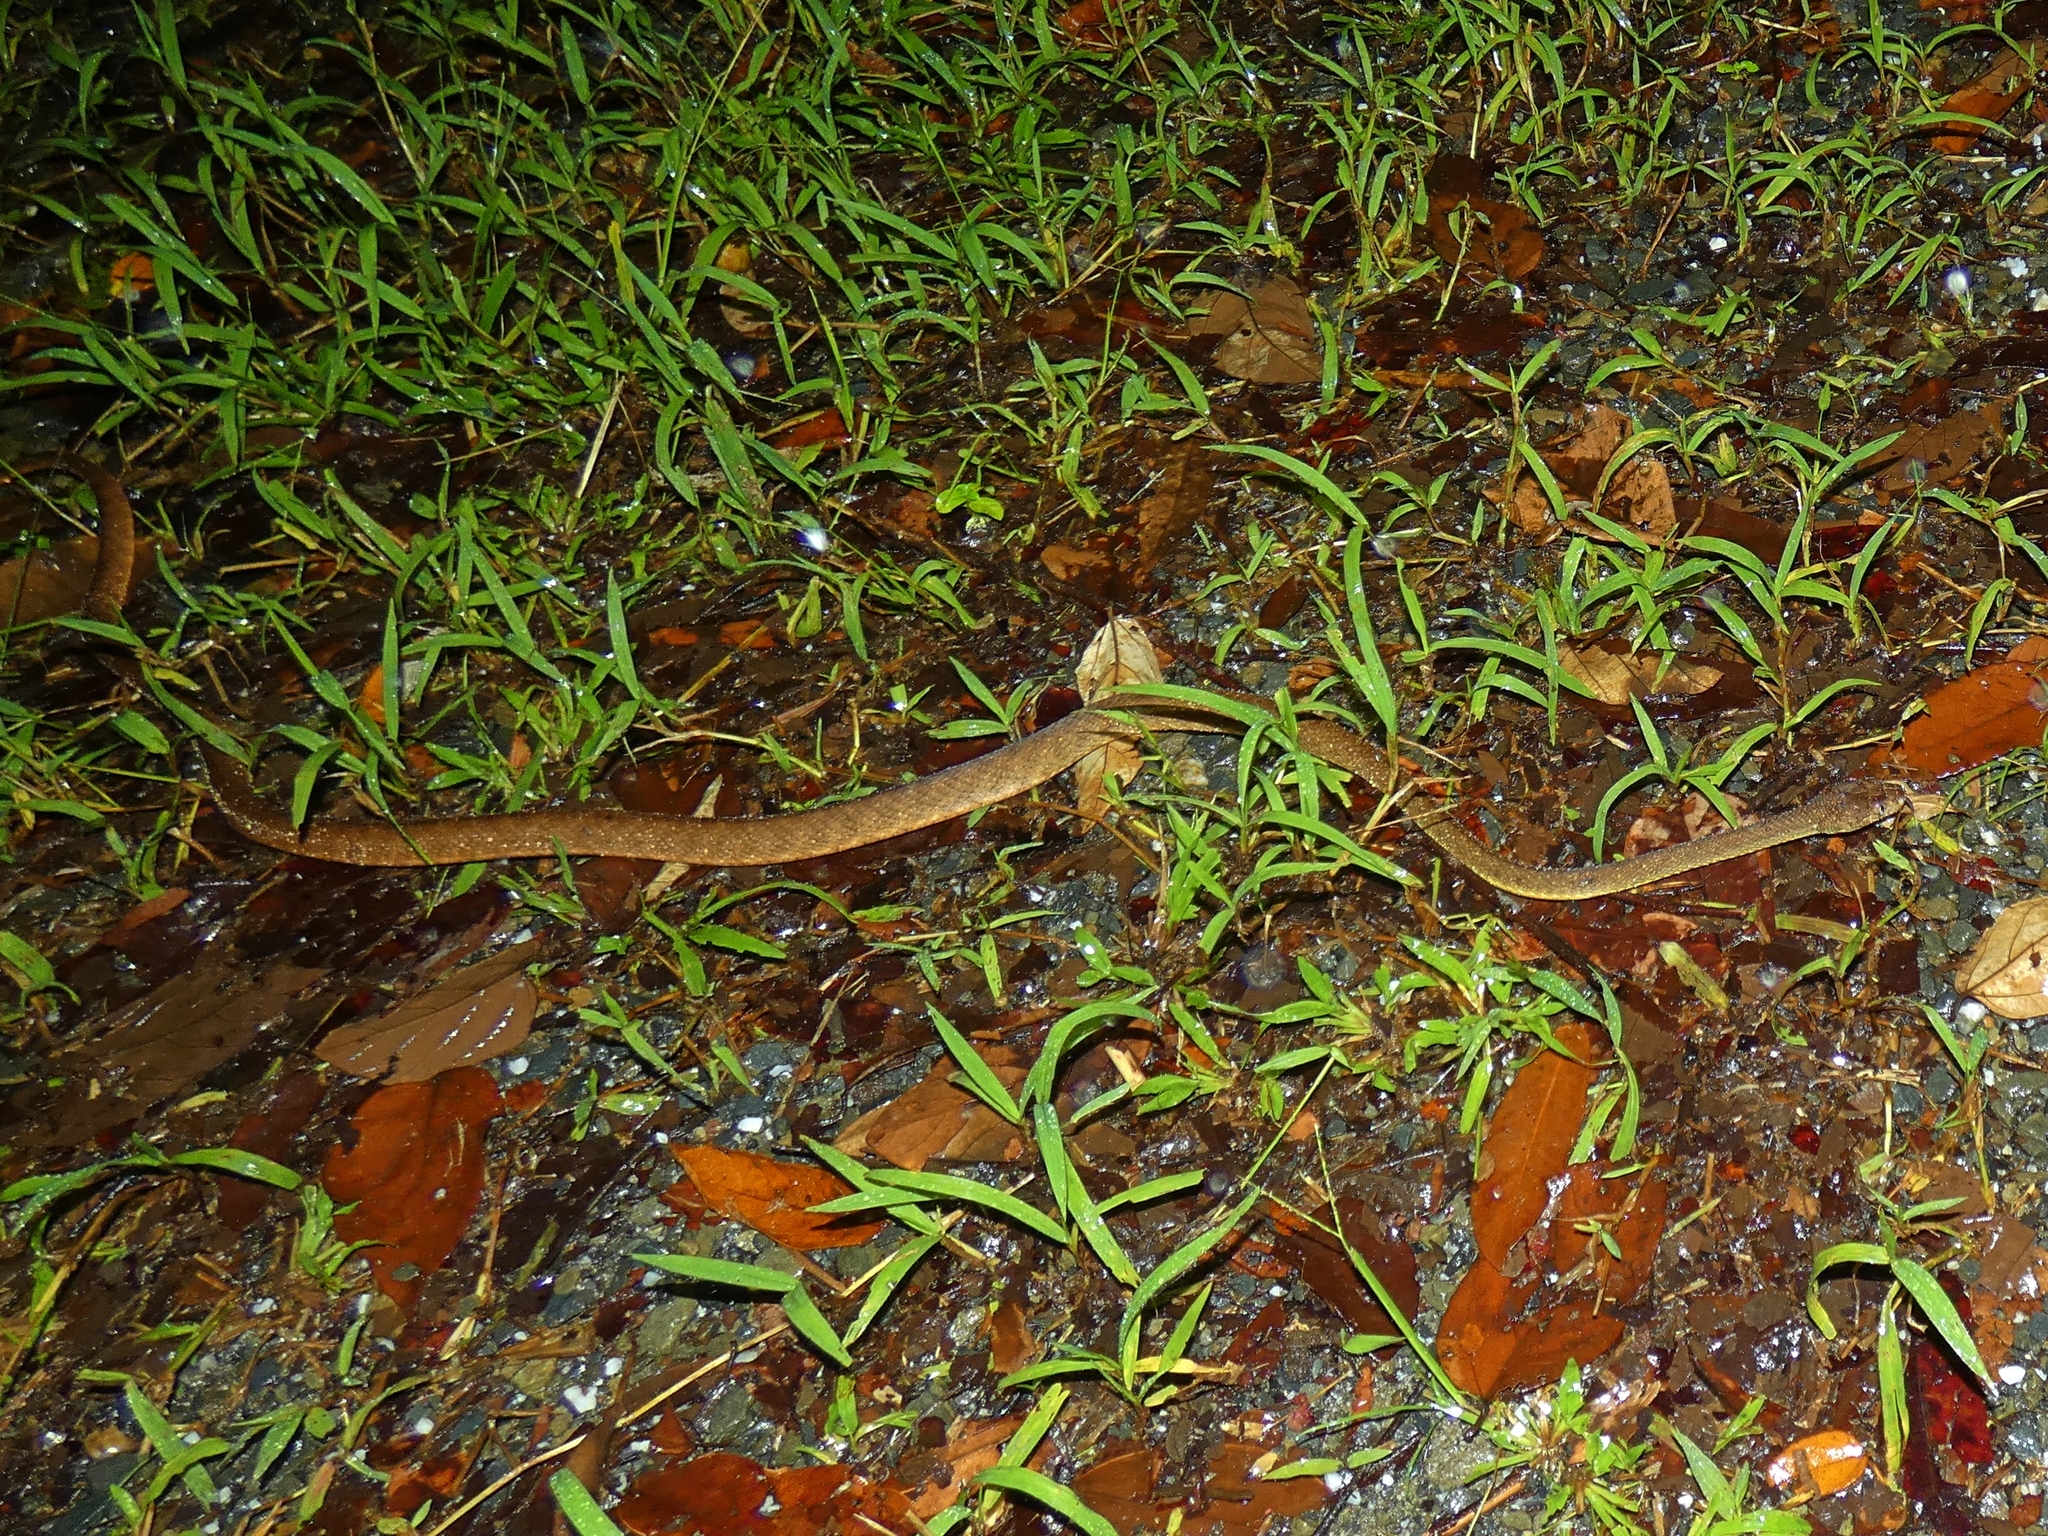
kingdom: Animalia
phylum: Chordata
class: Squamata
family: Colubridae
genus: Boiga
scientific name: Boiga irregularis
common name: Brown tree snake
